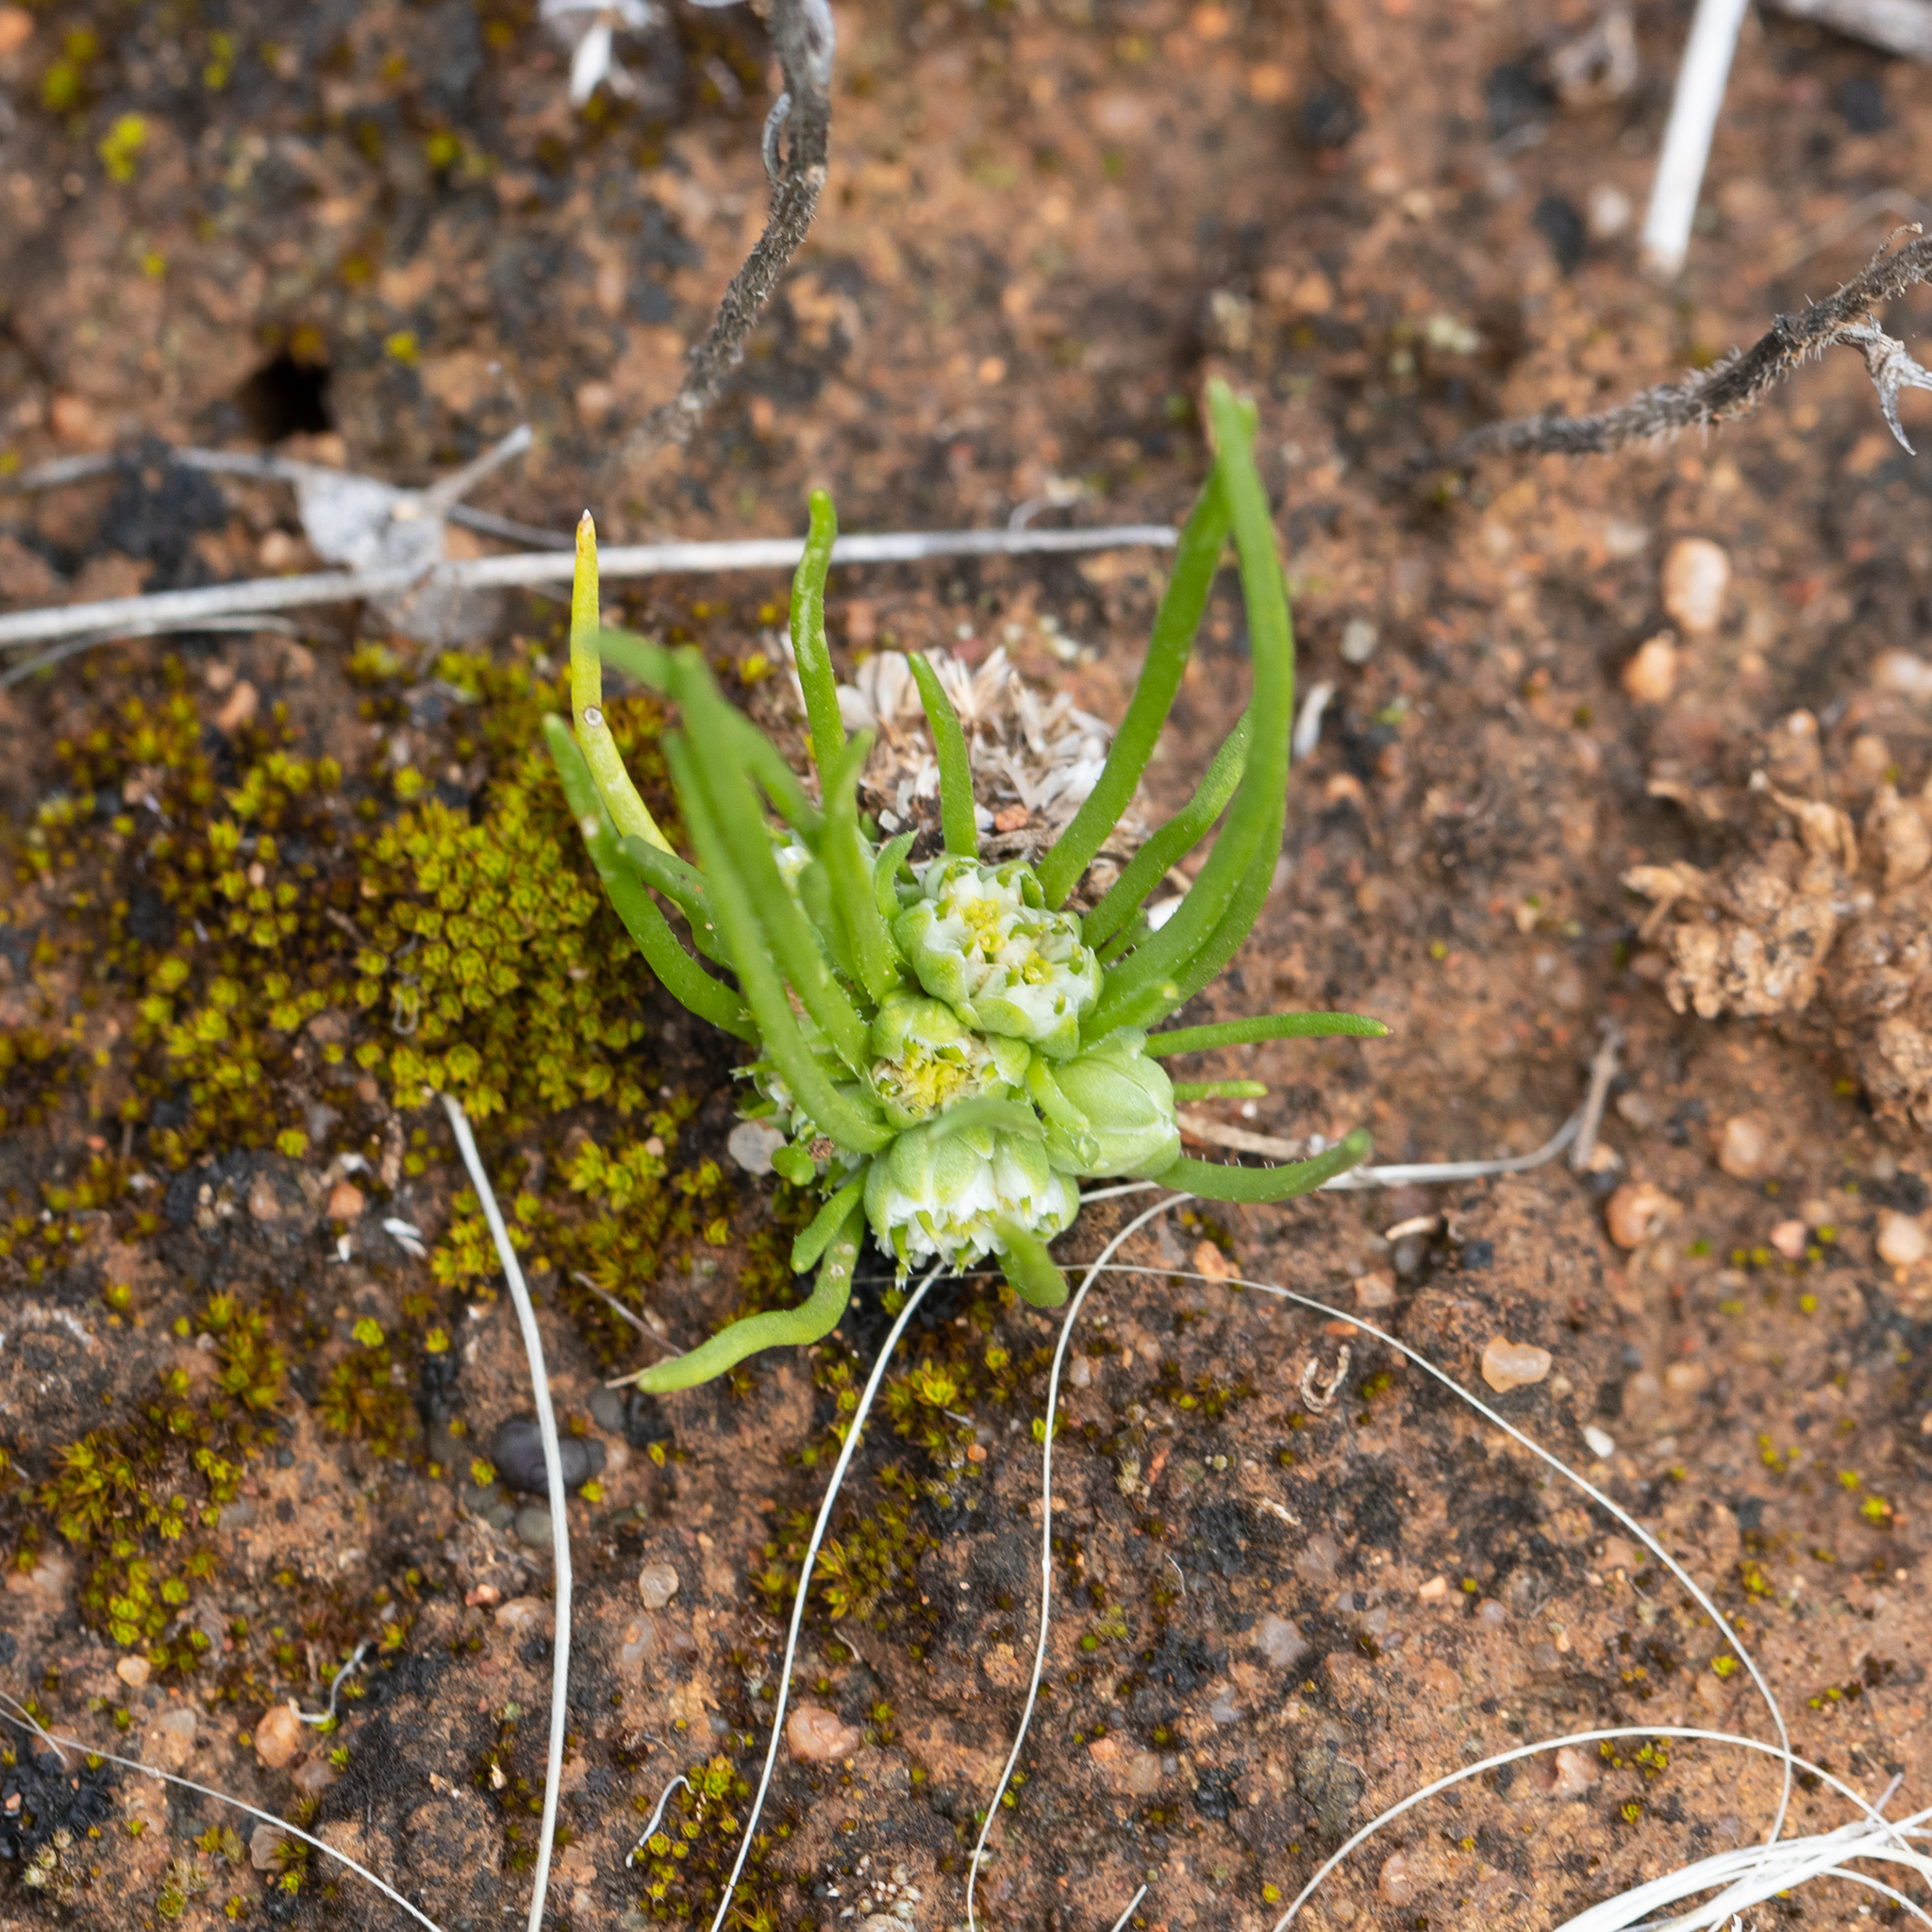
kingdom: Plantae
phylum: Tracheophyta
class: Magnoliopsida
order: Asterales
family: Asteraceae
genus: Isoetopsis
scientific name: Isoetopsis graminifolia
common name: Grass-cushion
